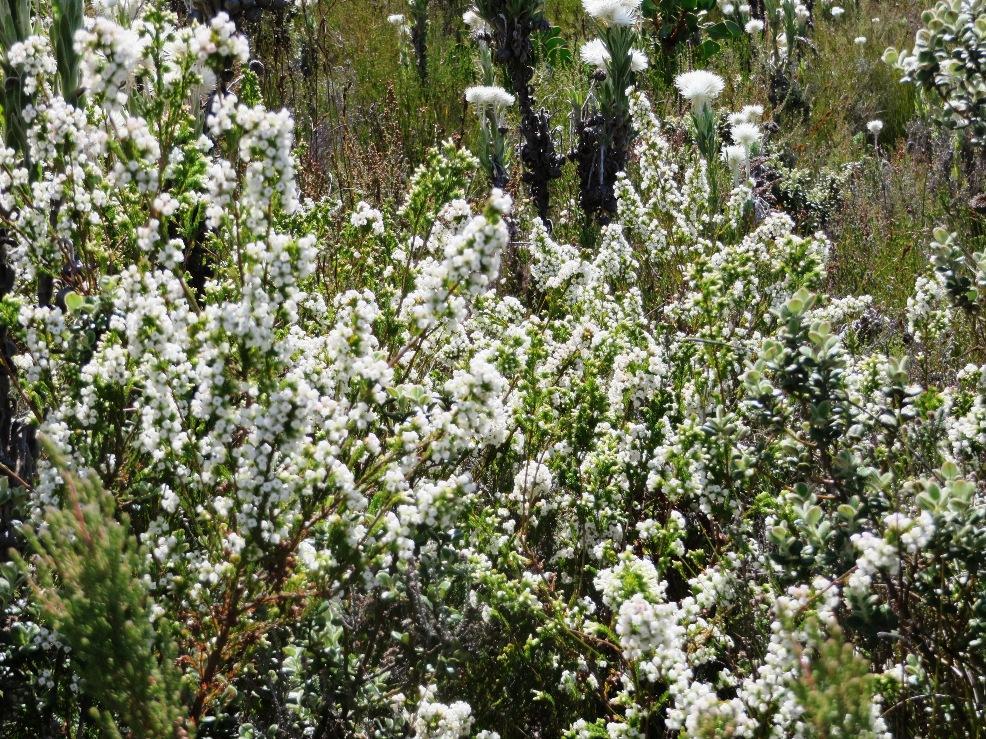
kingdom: Plantae
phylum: Tracheophyta
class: Magnoliopsida
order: Ericales
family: Ericaceae
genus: Erica
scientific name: Erica denticulata
